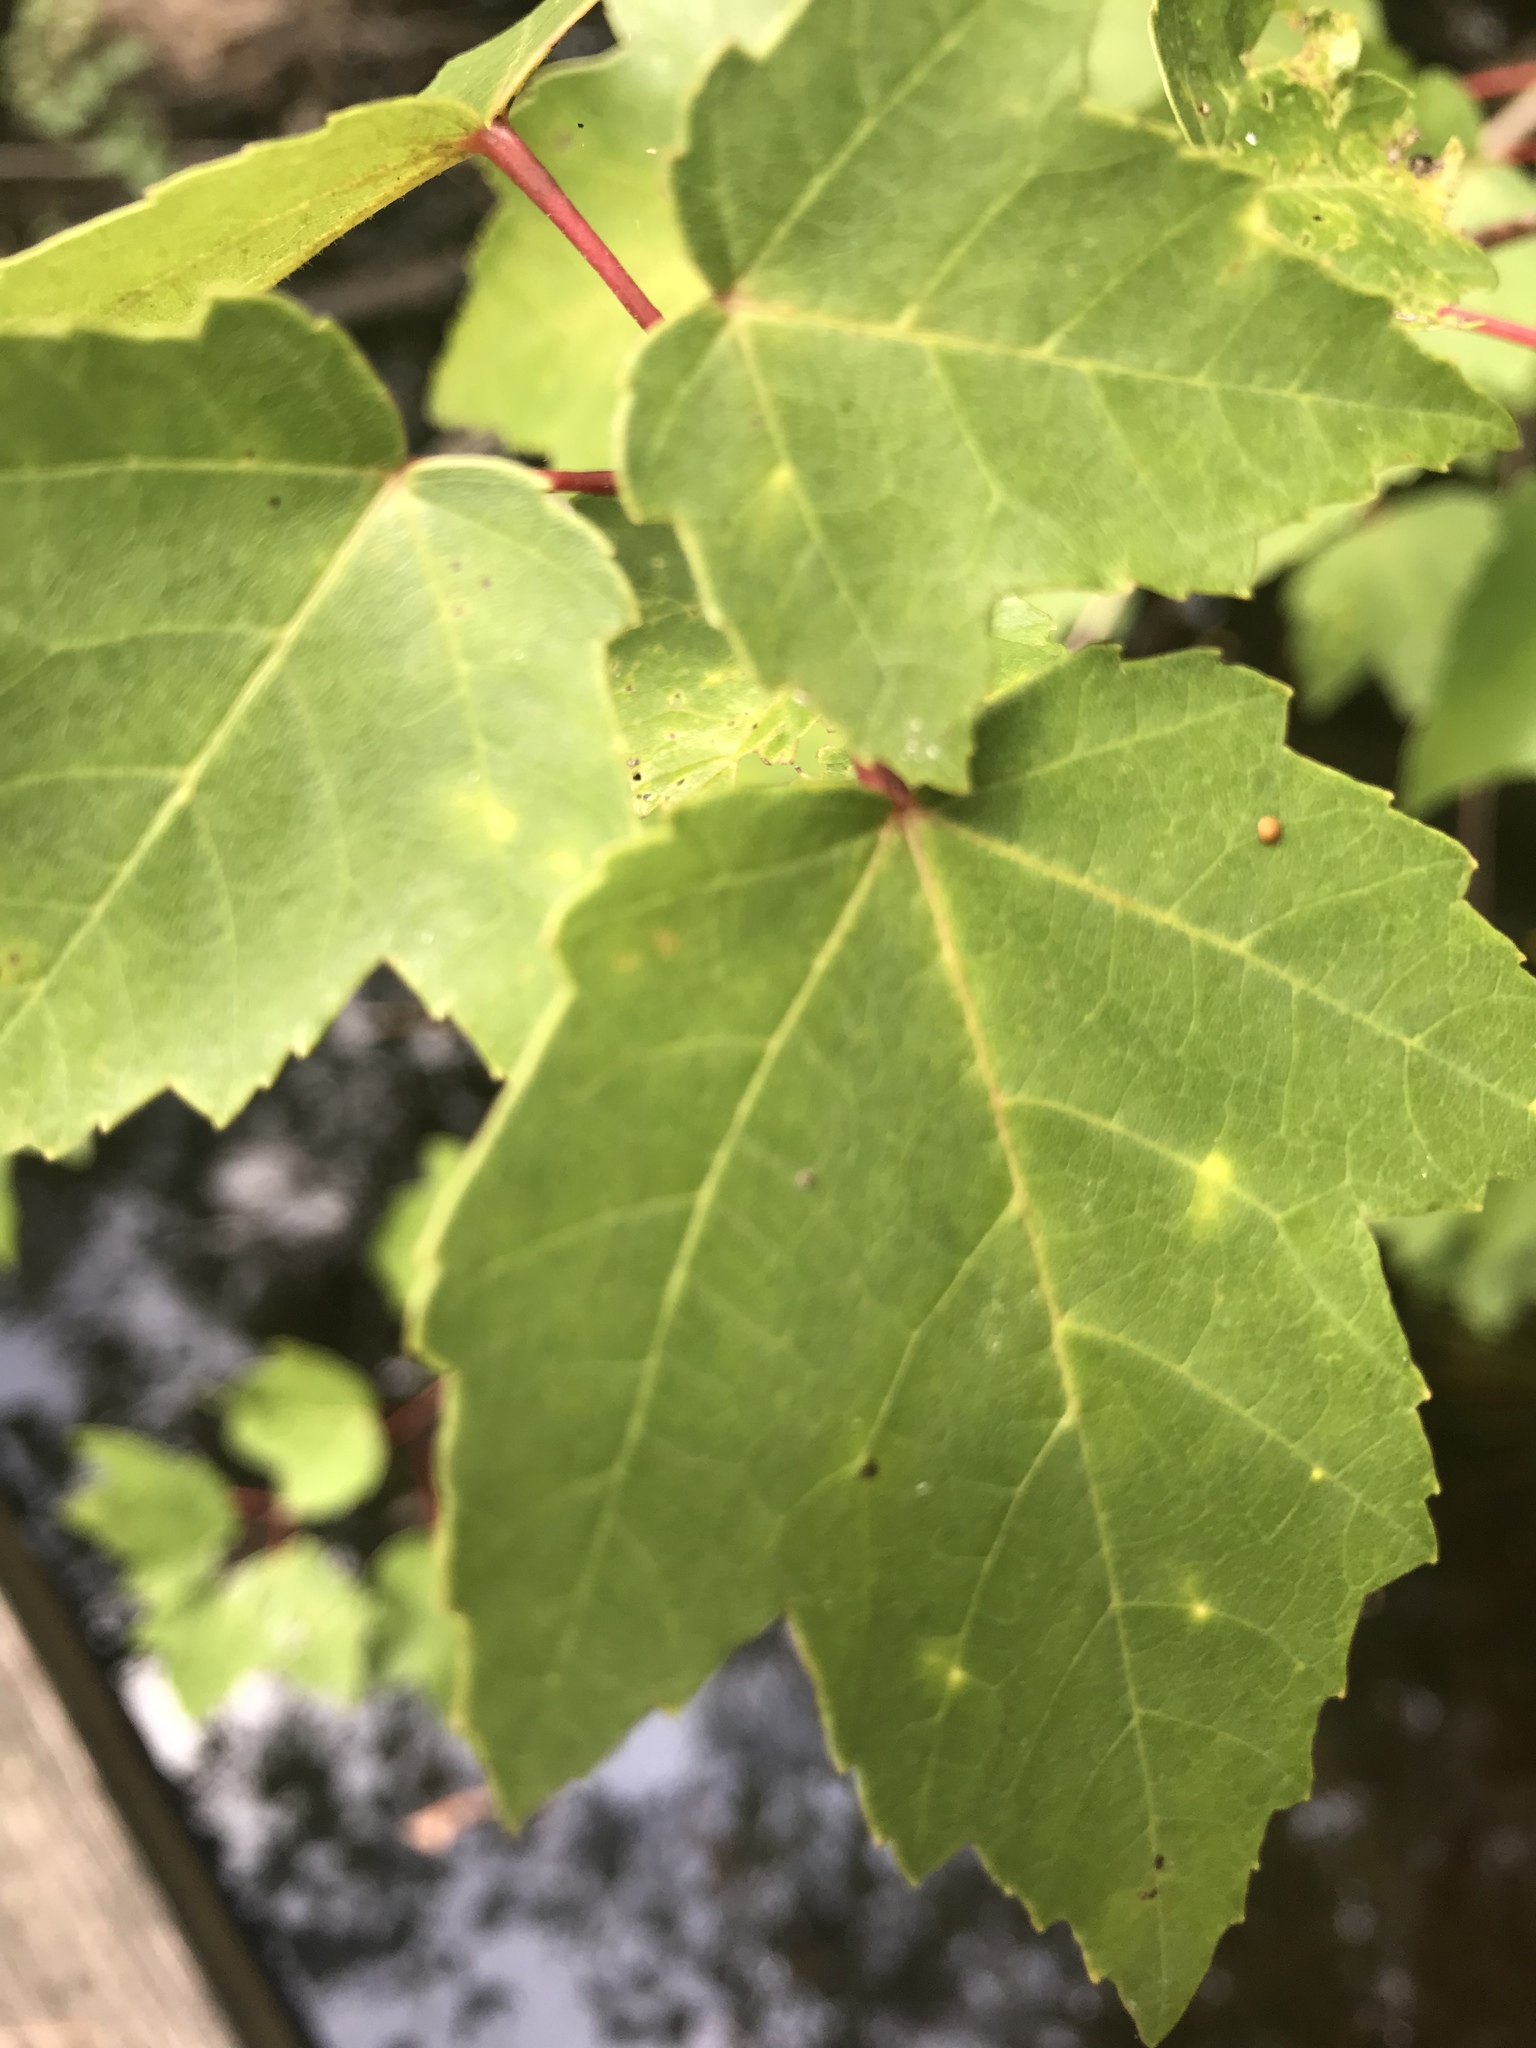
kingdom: Plantae
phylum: Tracheophyta
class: Magnoliopsida
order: Sapindales
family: Sapindaceae
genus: Acer
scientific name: Acer rubrum
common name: Red maple
